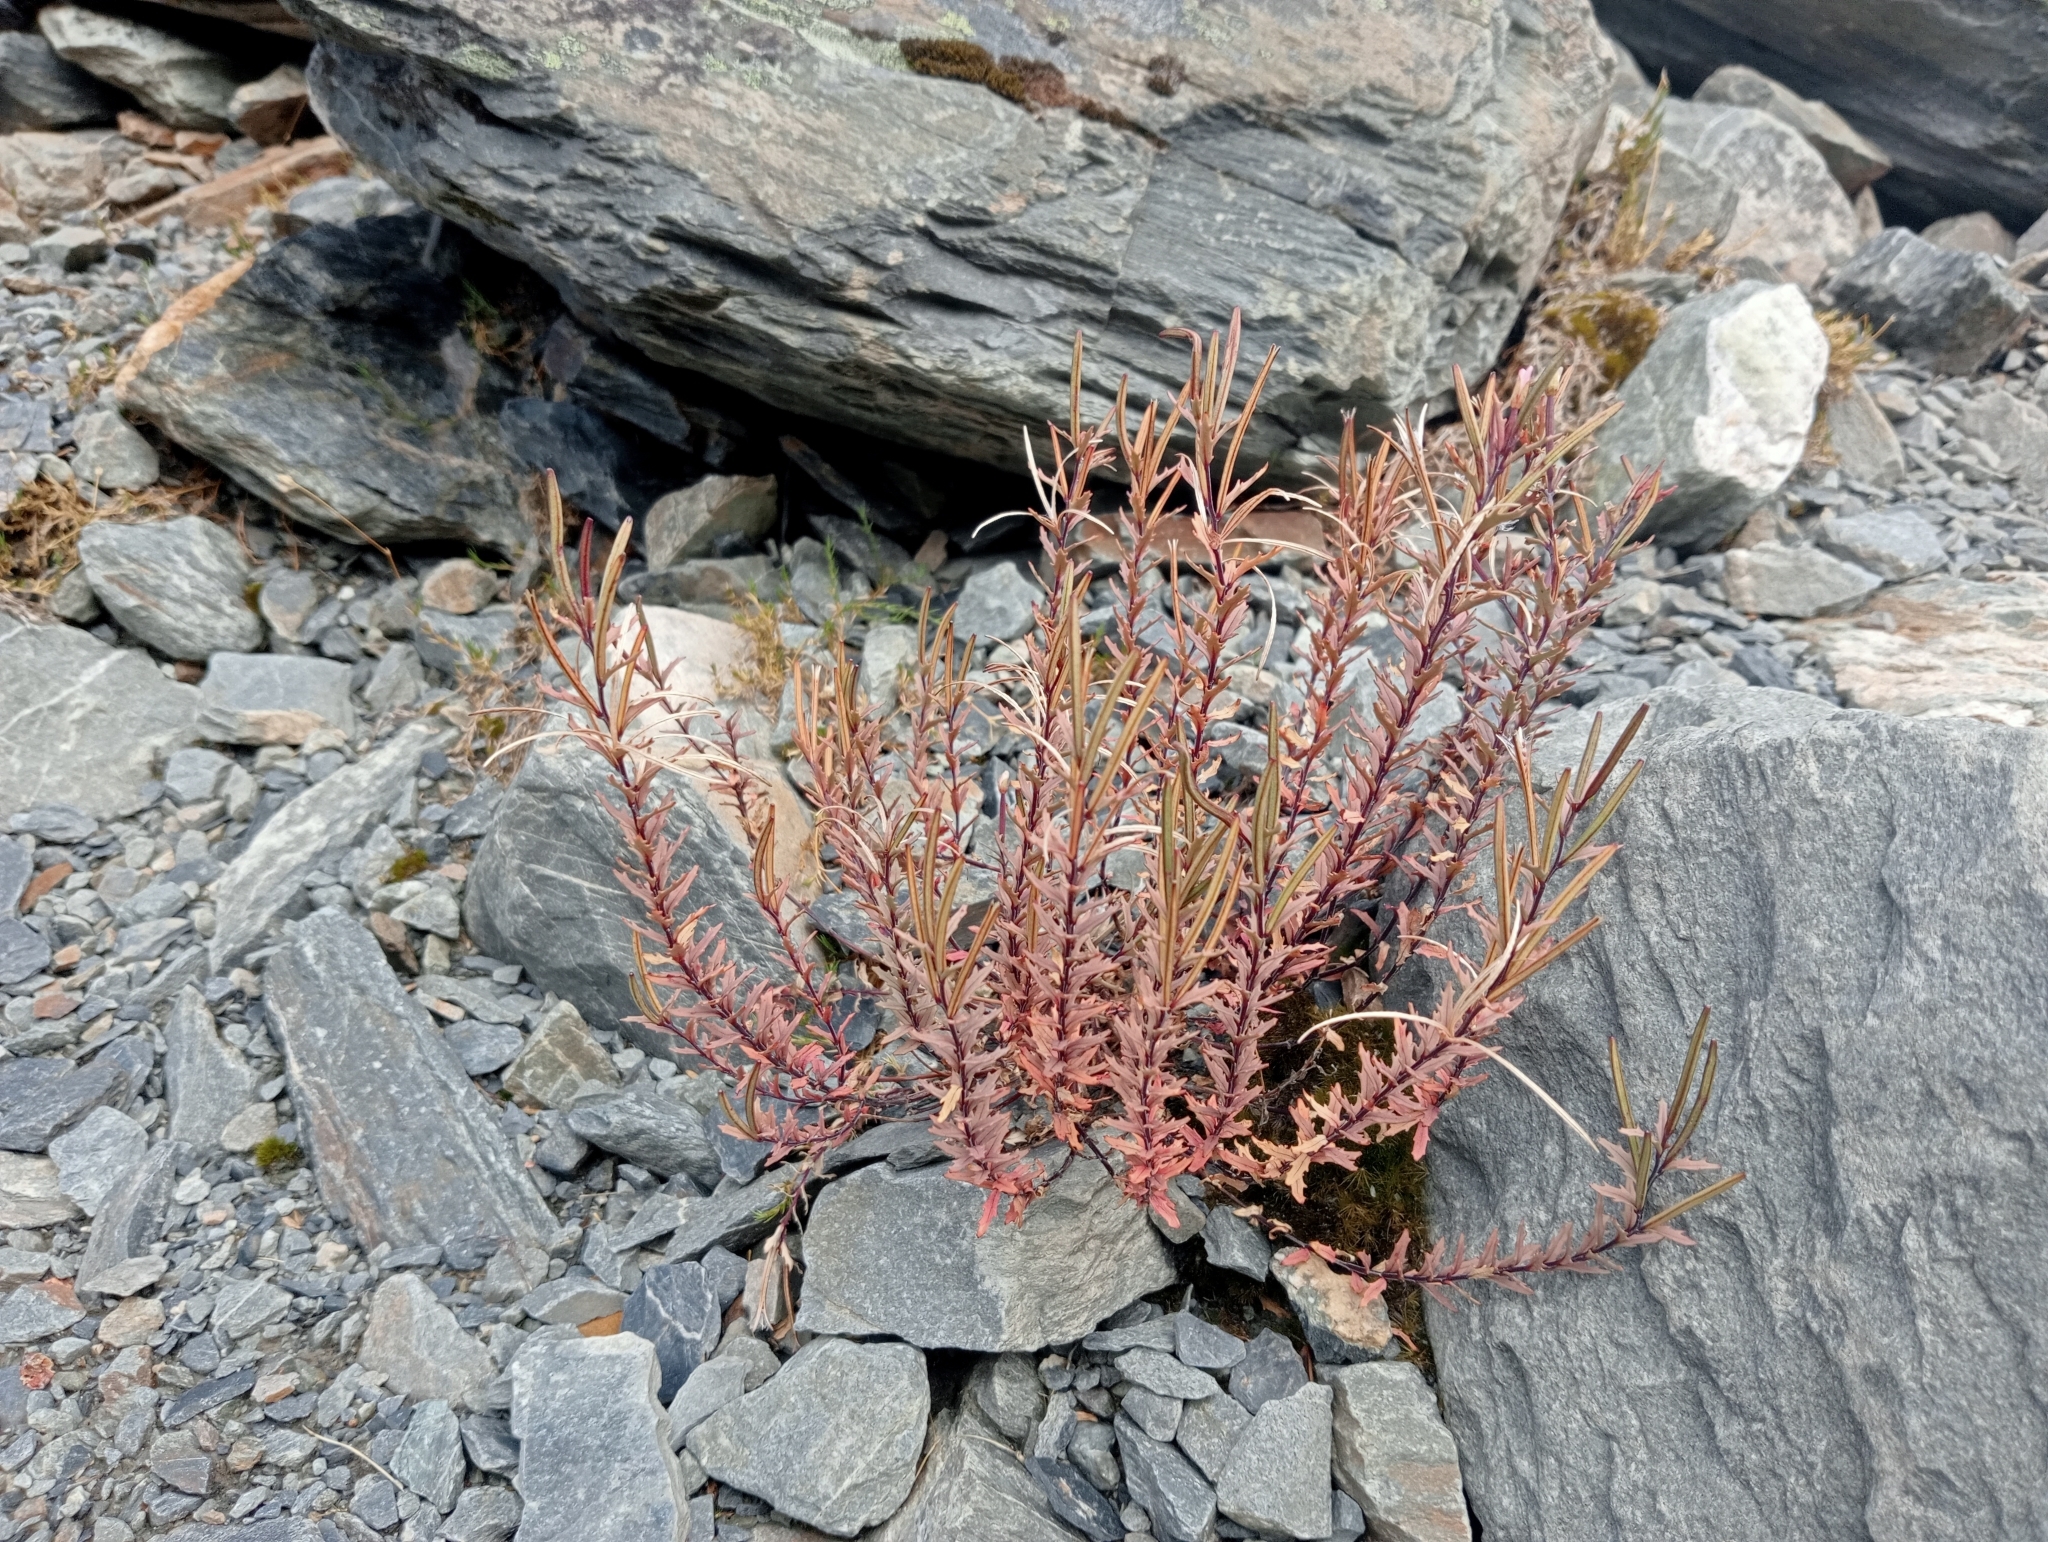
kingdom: Plantae
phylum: Tracheophyta
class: Magnoliopsida
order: Myrtales
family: Onagraceae
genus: Epilobium
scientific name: Epilobium melanocaulon
